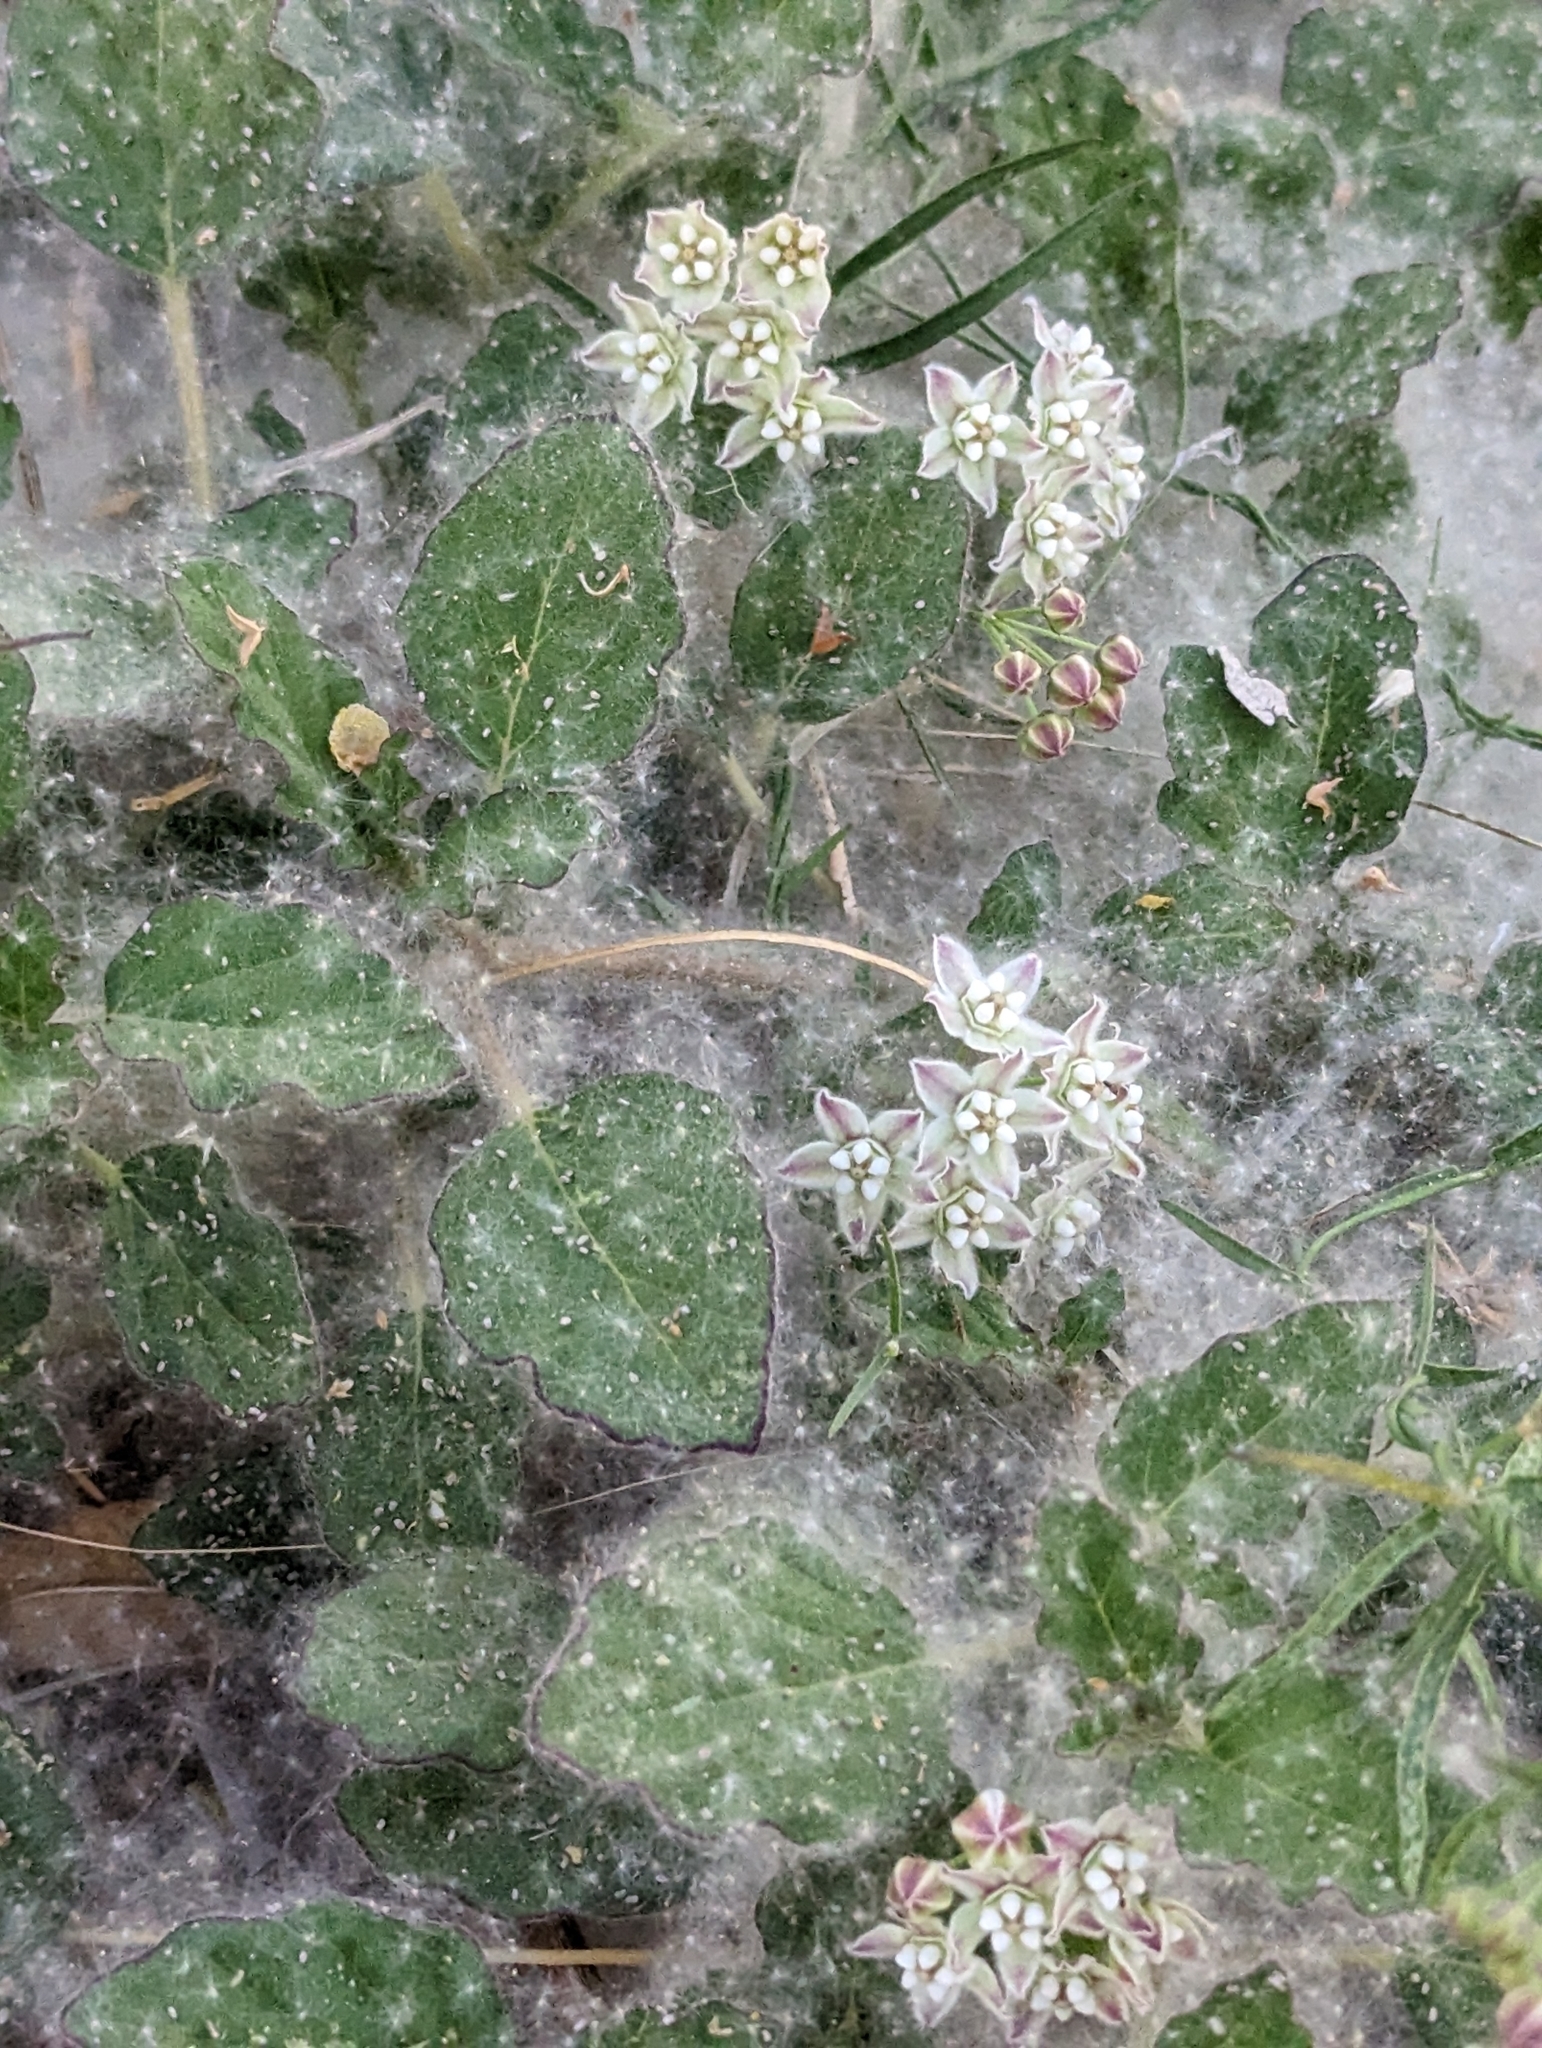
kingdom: Plantae
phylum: Tracheophyta
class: Magnoliopsida
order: Gentianales
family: Apocynaceae
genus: Funastrum
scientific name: Funastrum heterophyllum
